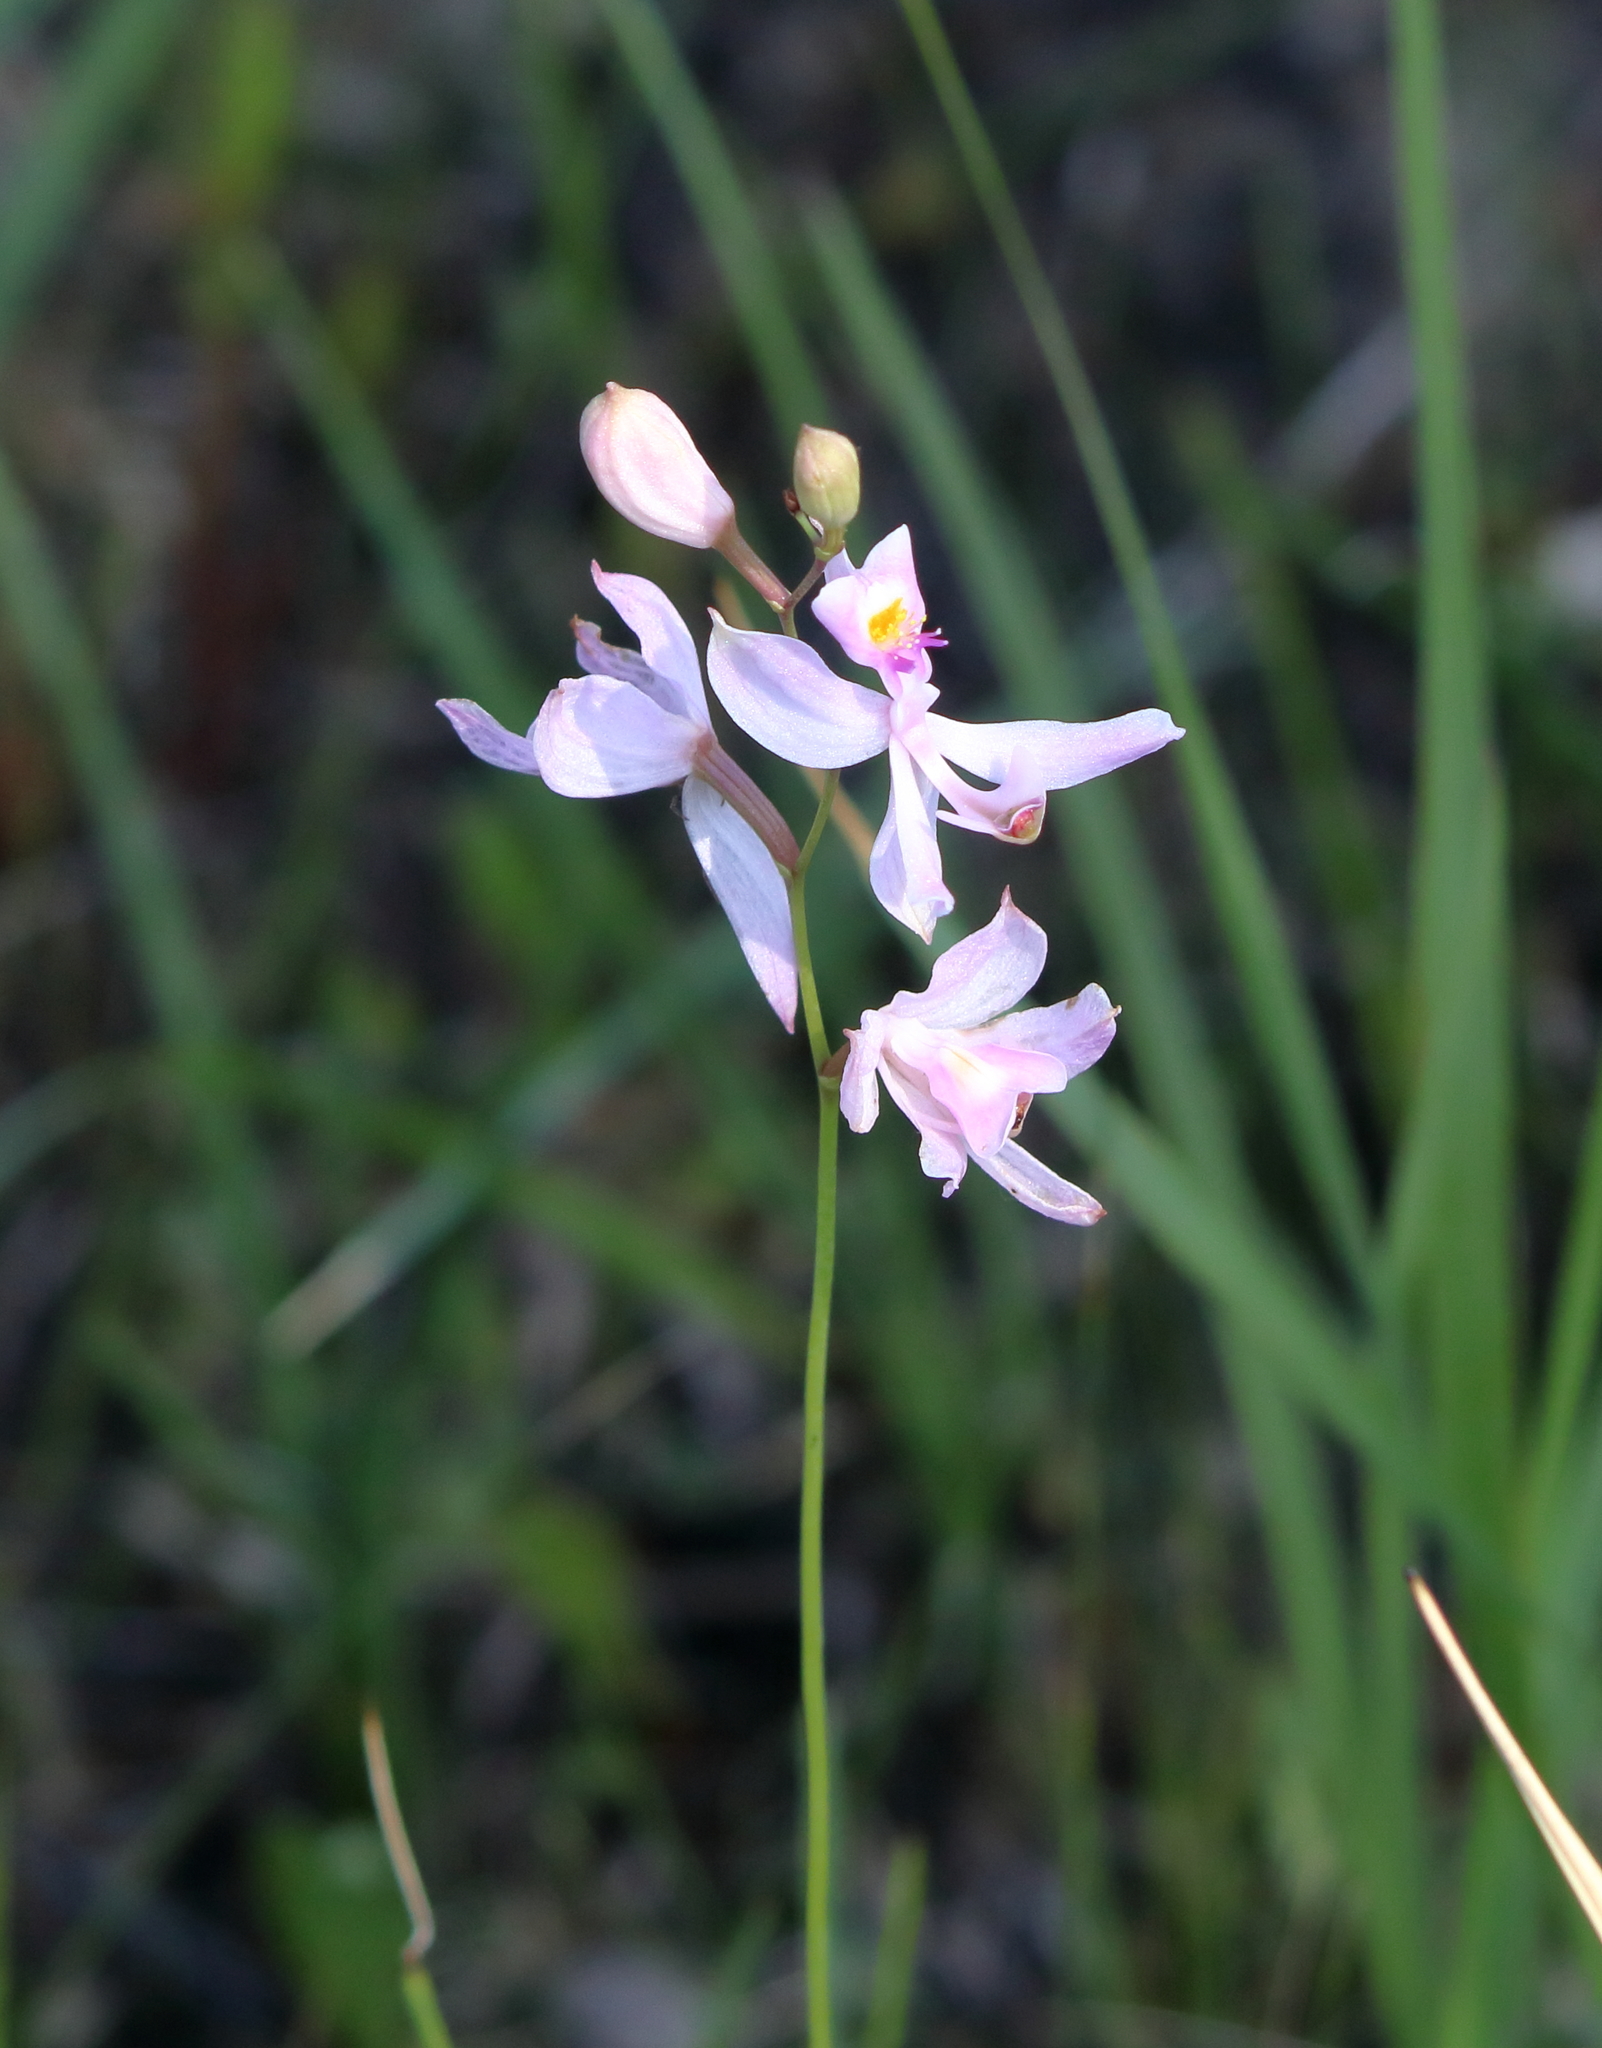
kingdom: Plantae
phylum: Tracheophyta
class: Liliopsida
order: Asparagales
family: Orchidaceae
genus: Calopogon
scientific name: Calopogon pallidus
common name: Pale grasspink
